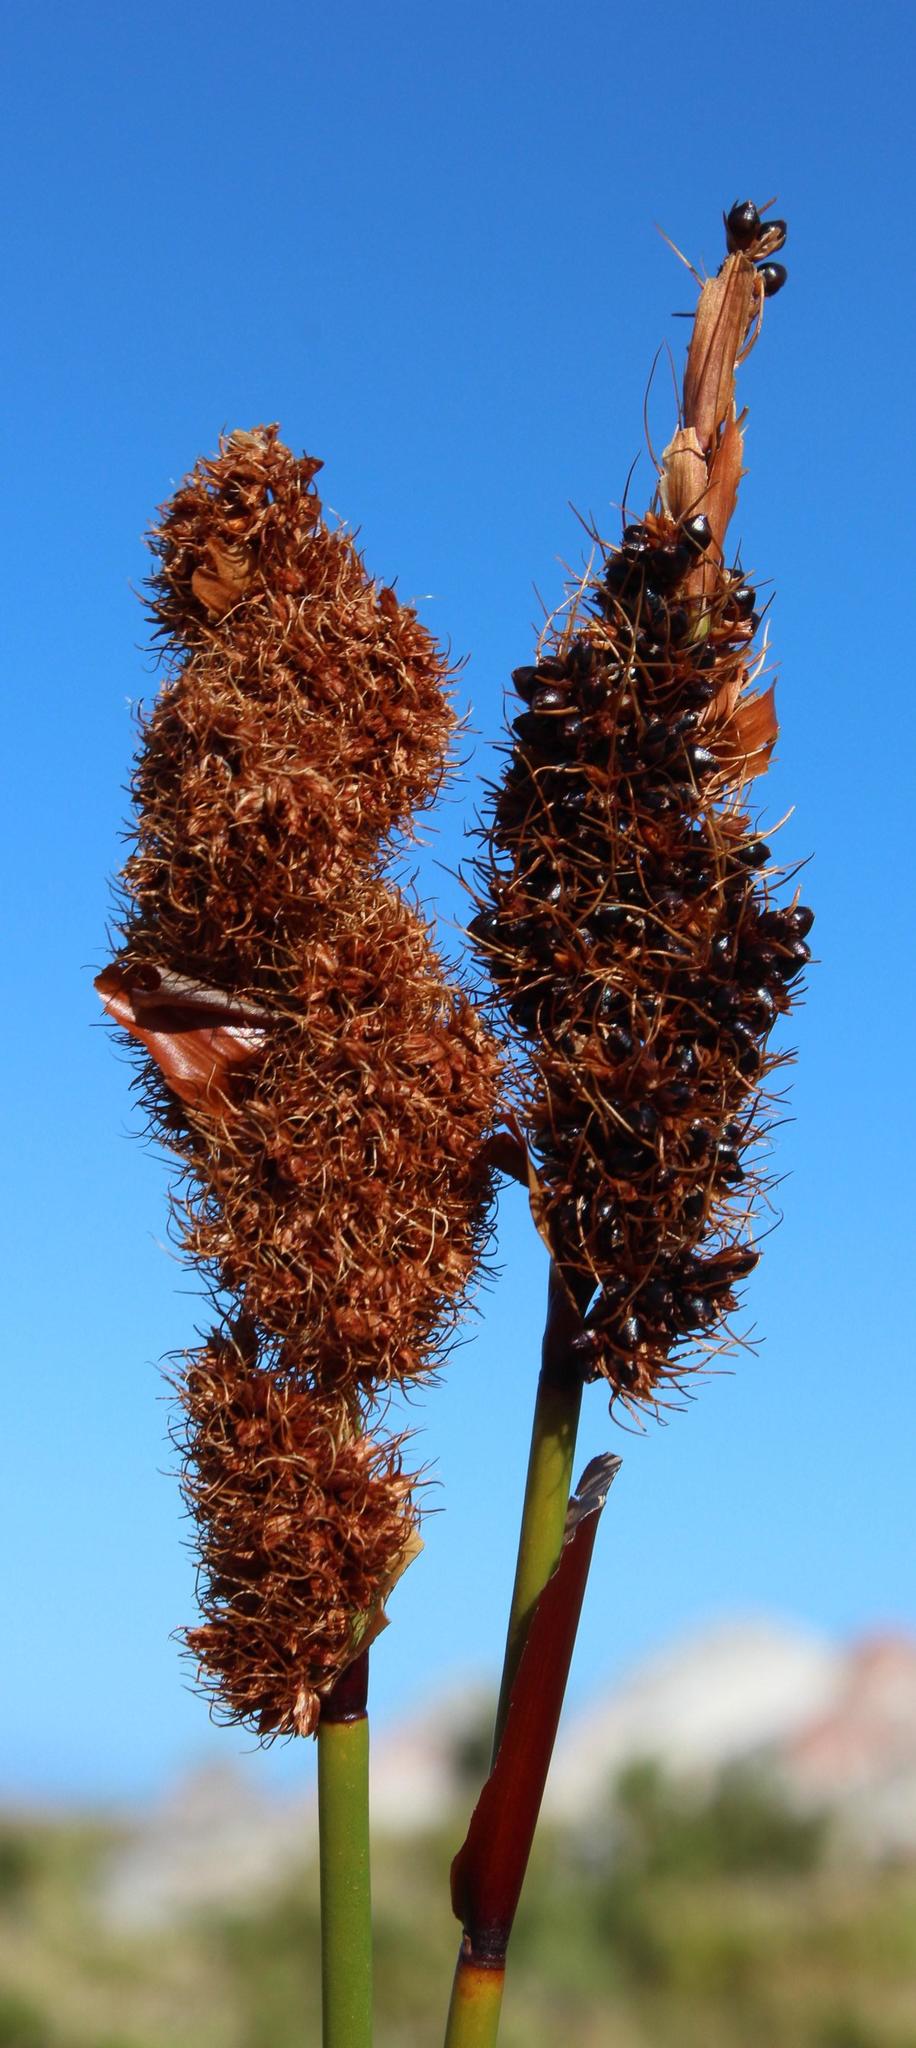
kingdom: Plantae
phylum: Tracheophyta
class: Liliopsida
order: Poales
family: Restionaceae
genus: Elegia
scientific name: Elegia cuspidata
